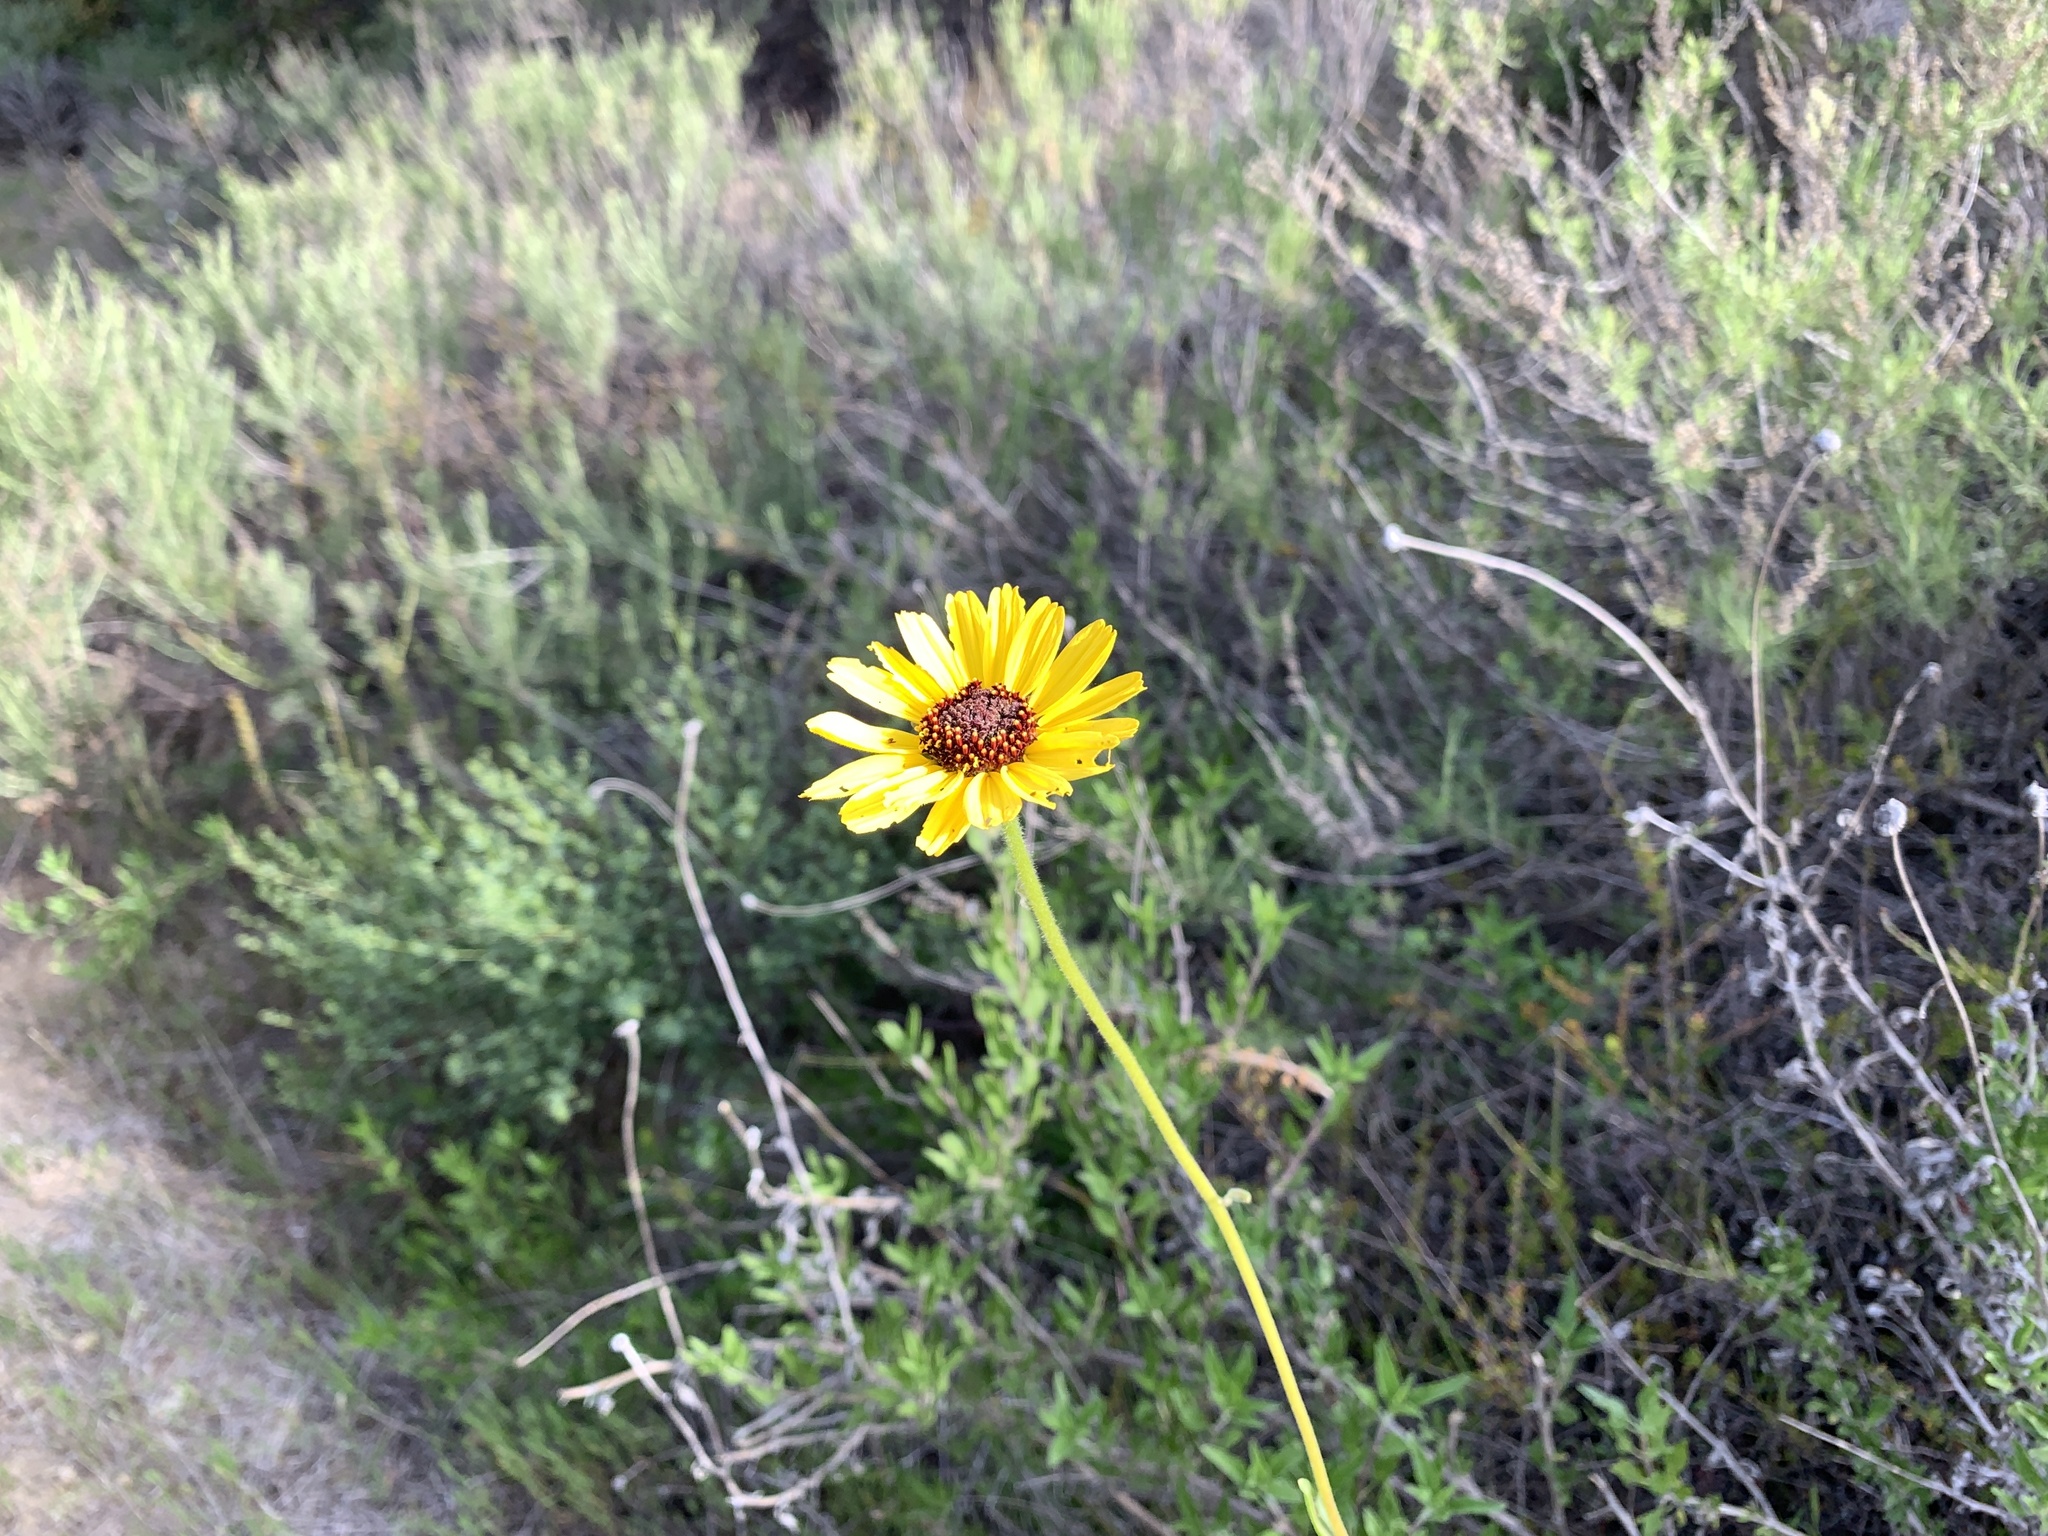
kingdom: Plantae
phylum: Tracheophyta
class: Magnoliopsida
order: Asterales
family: Asteraceae
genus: Encelia
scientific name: Encelia californica
